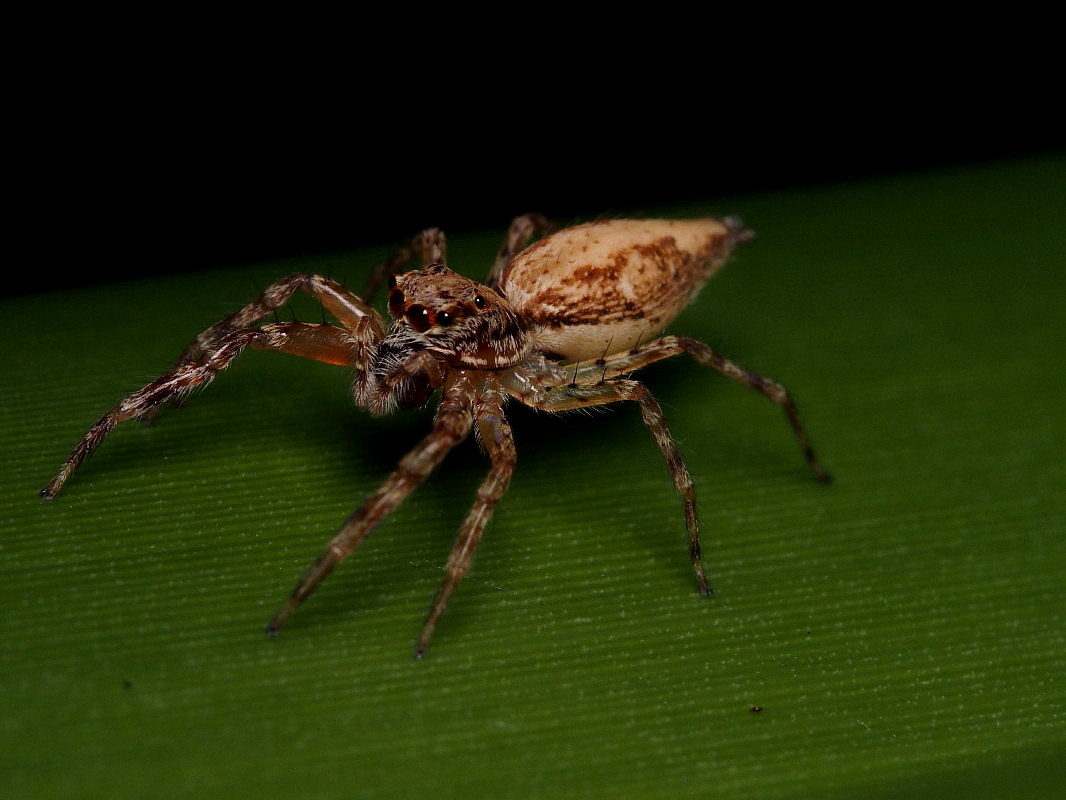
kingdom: Animalia
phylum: Arthropoda
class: Arachnida
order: Araneae
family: Salticidae
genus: Helpis
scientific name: Helpis minitabunda
